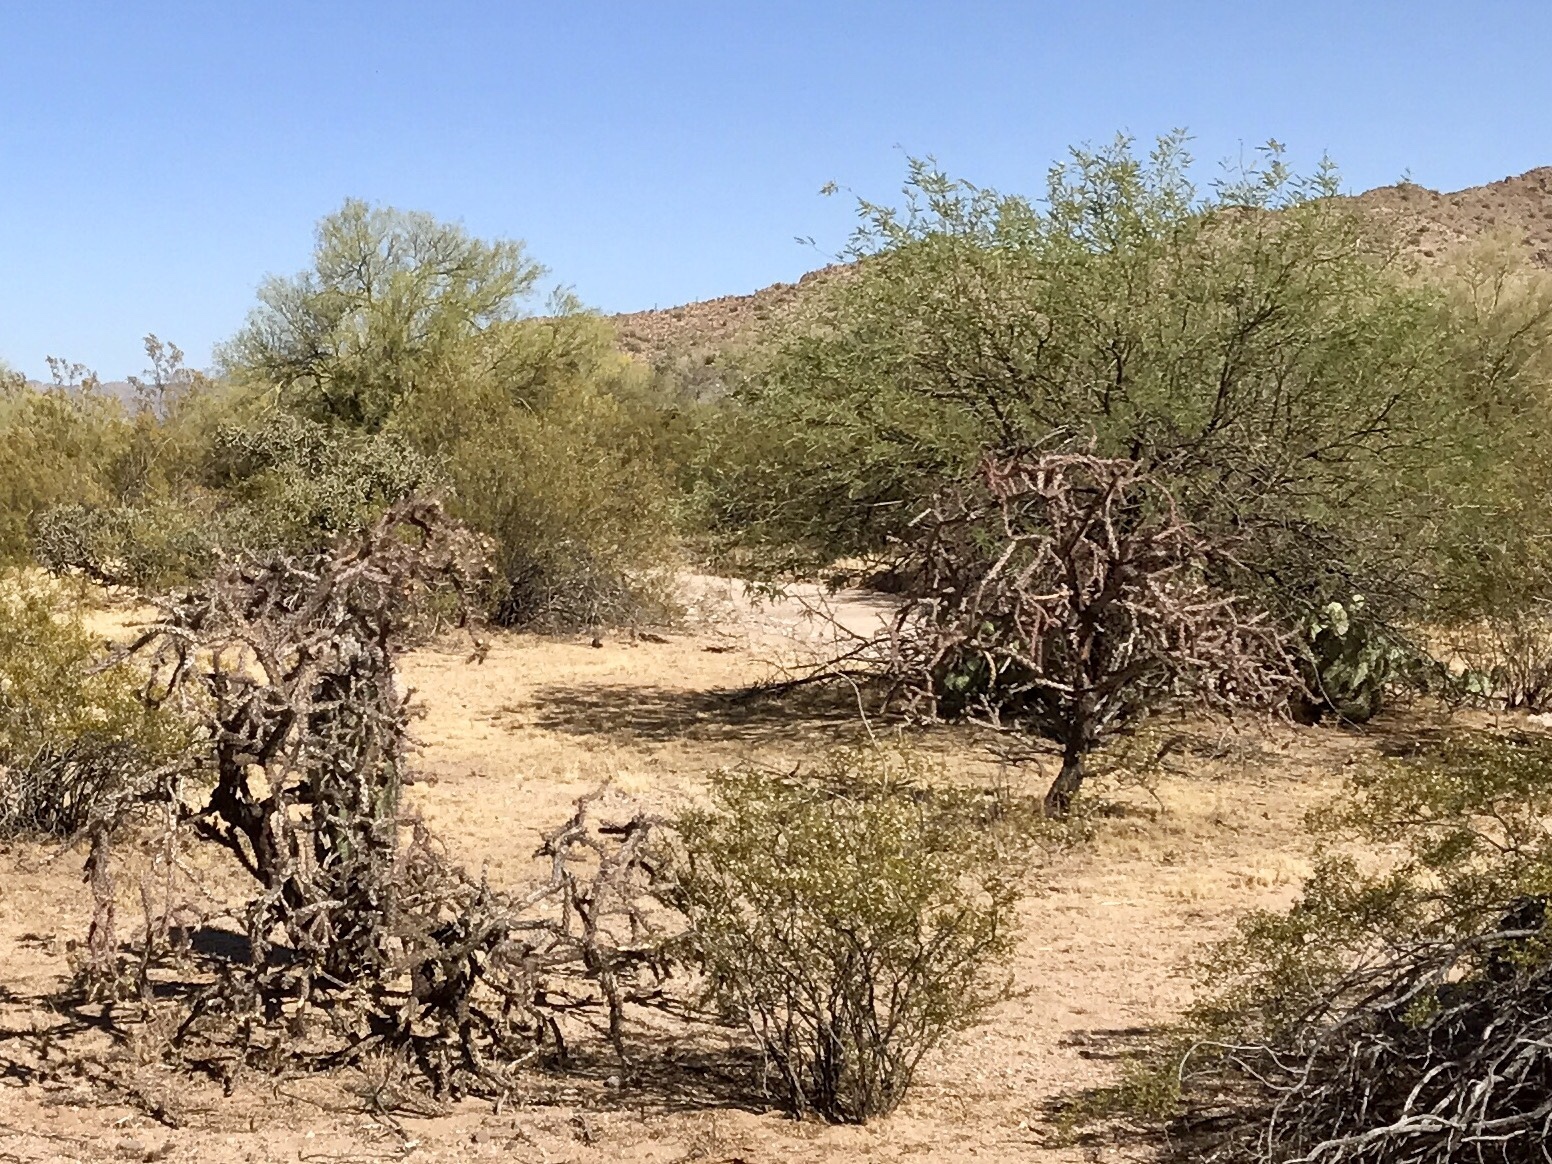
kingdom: Plantae
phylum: Tracheophyta
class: Magnoliopsida
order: Caryophyllales
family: Cactaceae
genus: Cylindropuntia
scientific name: Cylindropuntia thurberi
